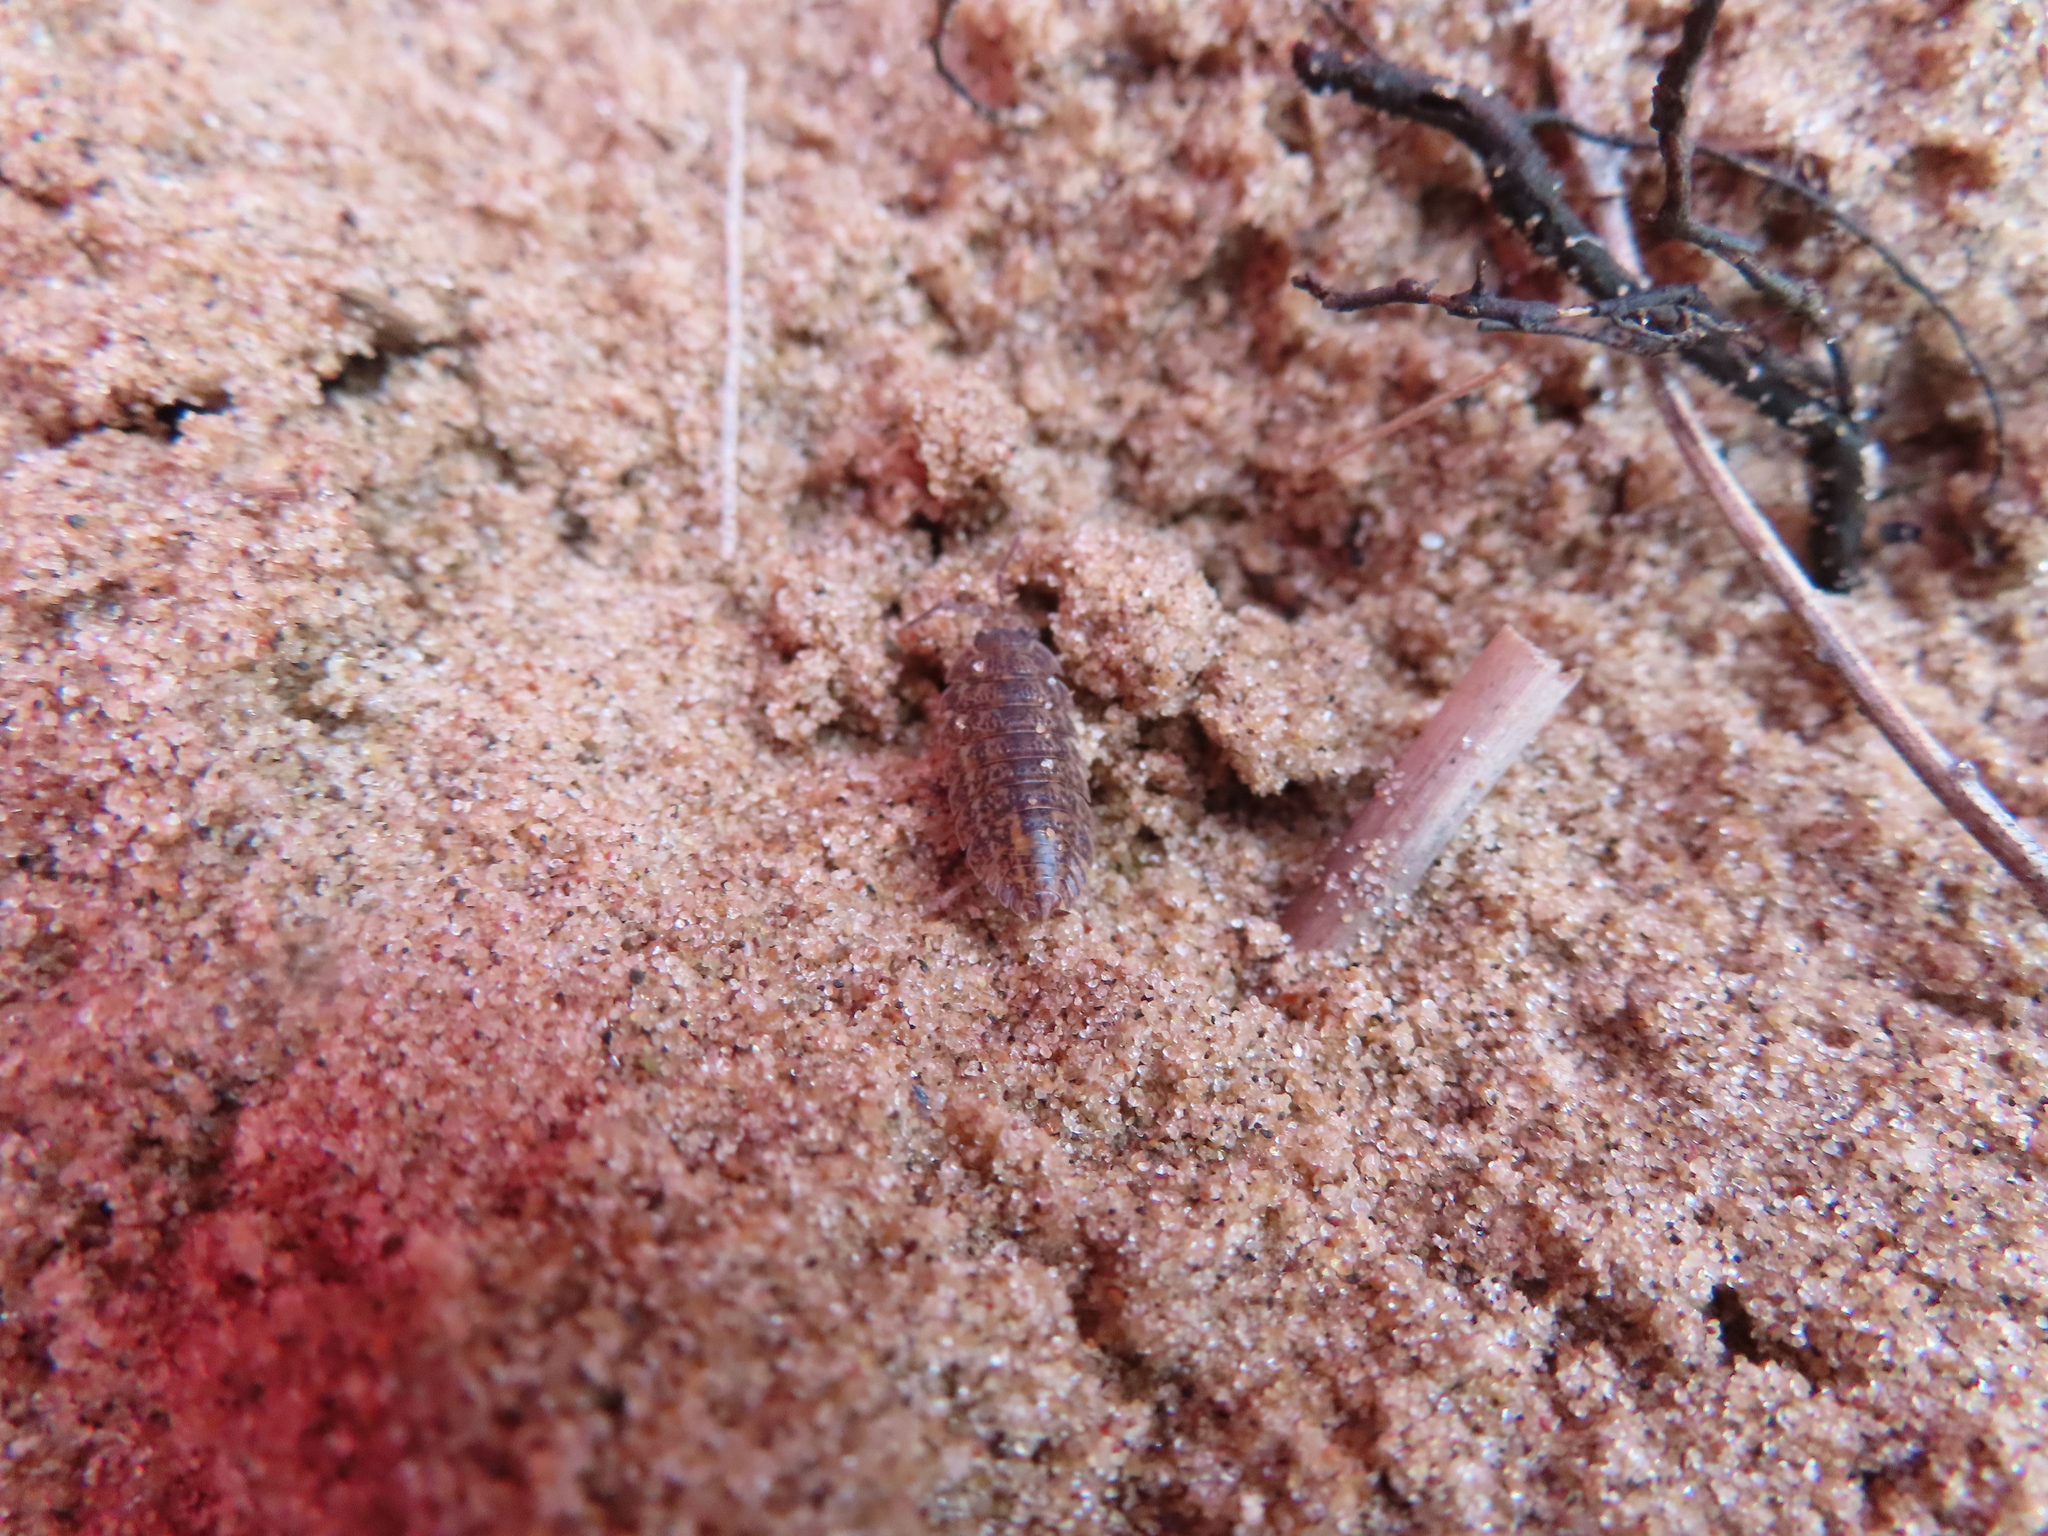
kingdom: Animalia
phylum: Arthropoda
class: Malacostraca
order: Isopoda
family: Trachelipodidae
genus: Trachelipus
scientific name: Trachelipus rathkii
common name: Isopod
